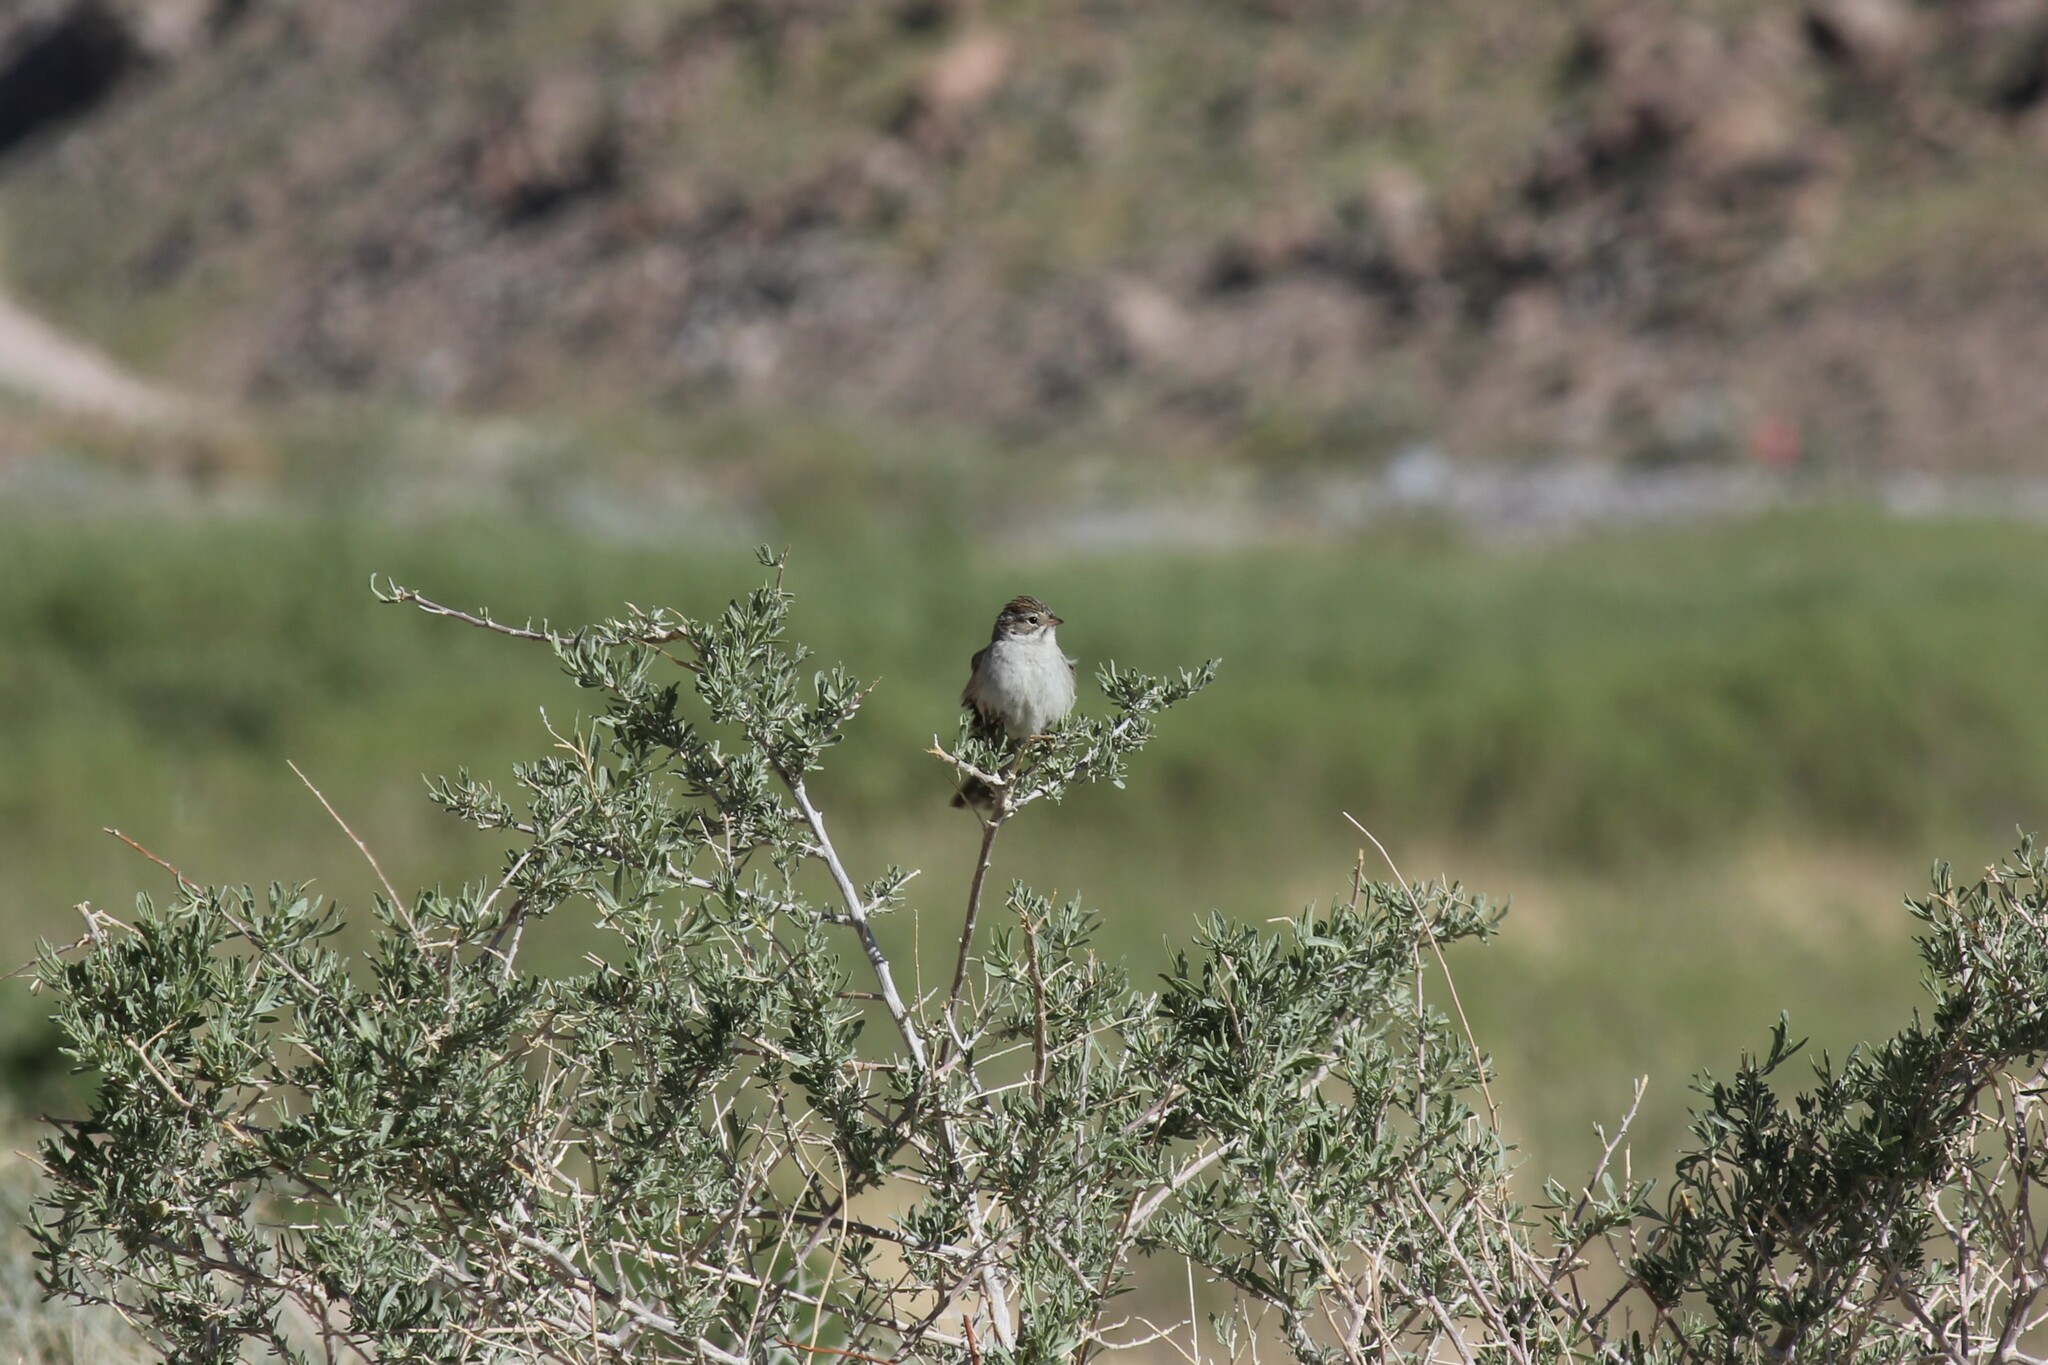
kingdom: Animalia
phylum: Chordata
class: Aves
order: Passeriformes
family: Passerellidae
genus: Spizella
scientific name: Spizella breweri
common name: Brewer's sparrow
